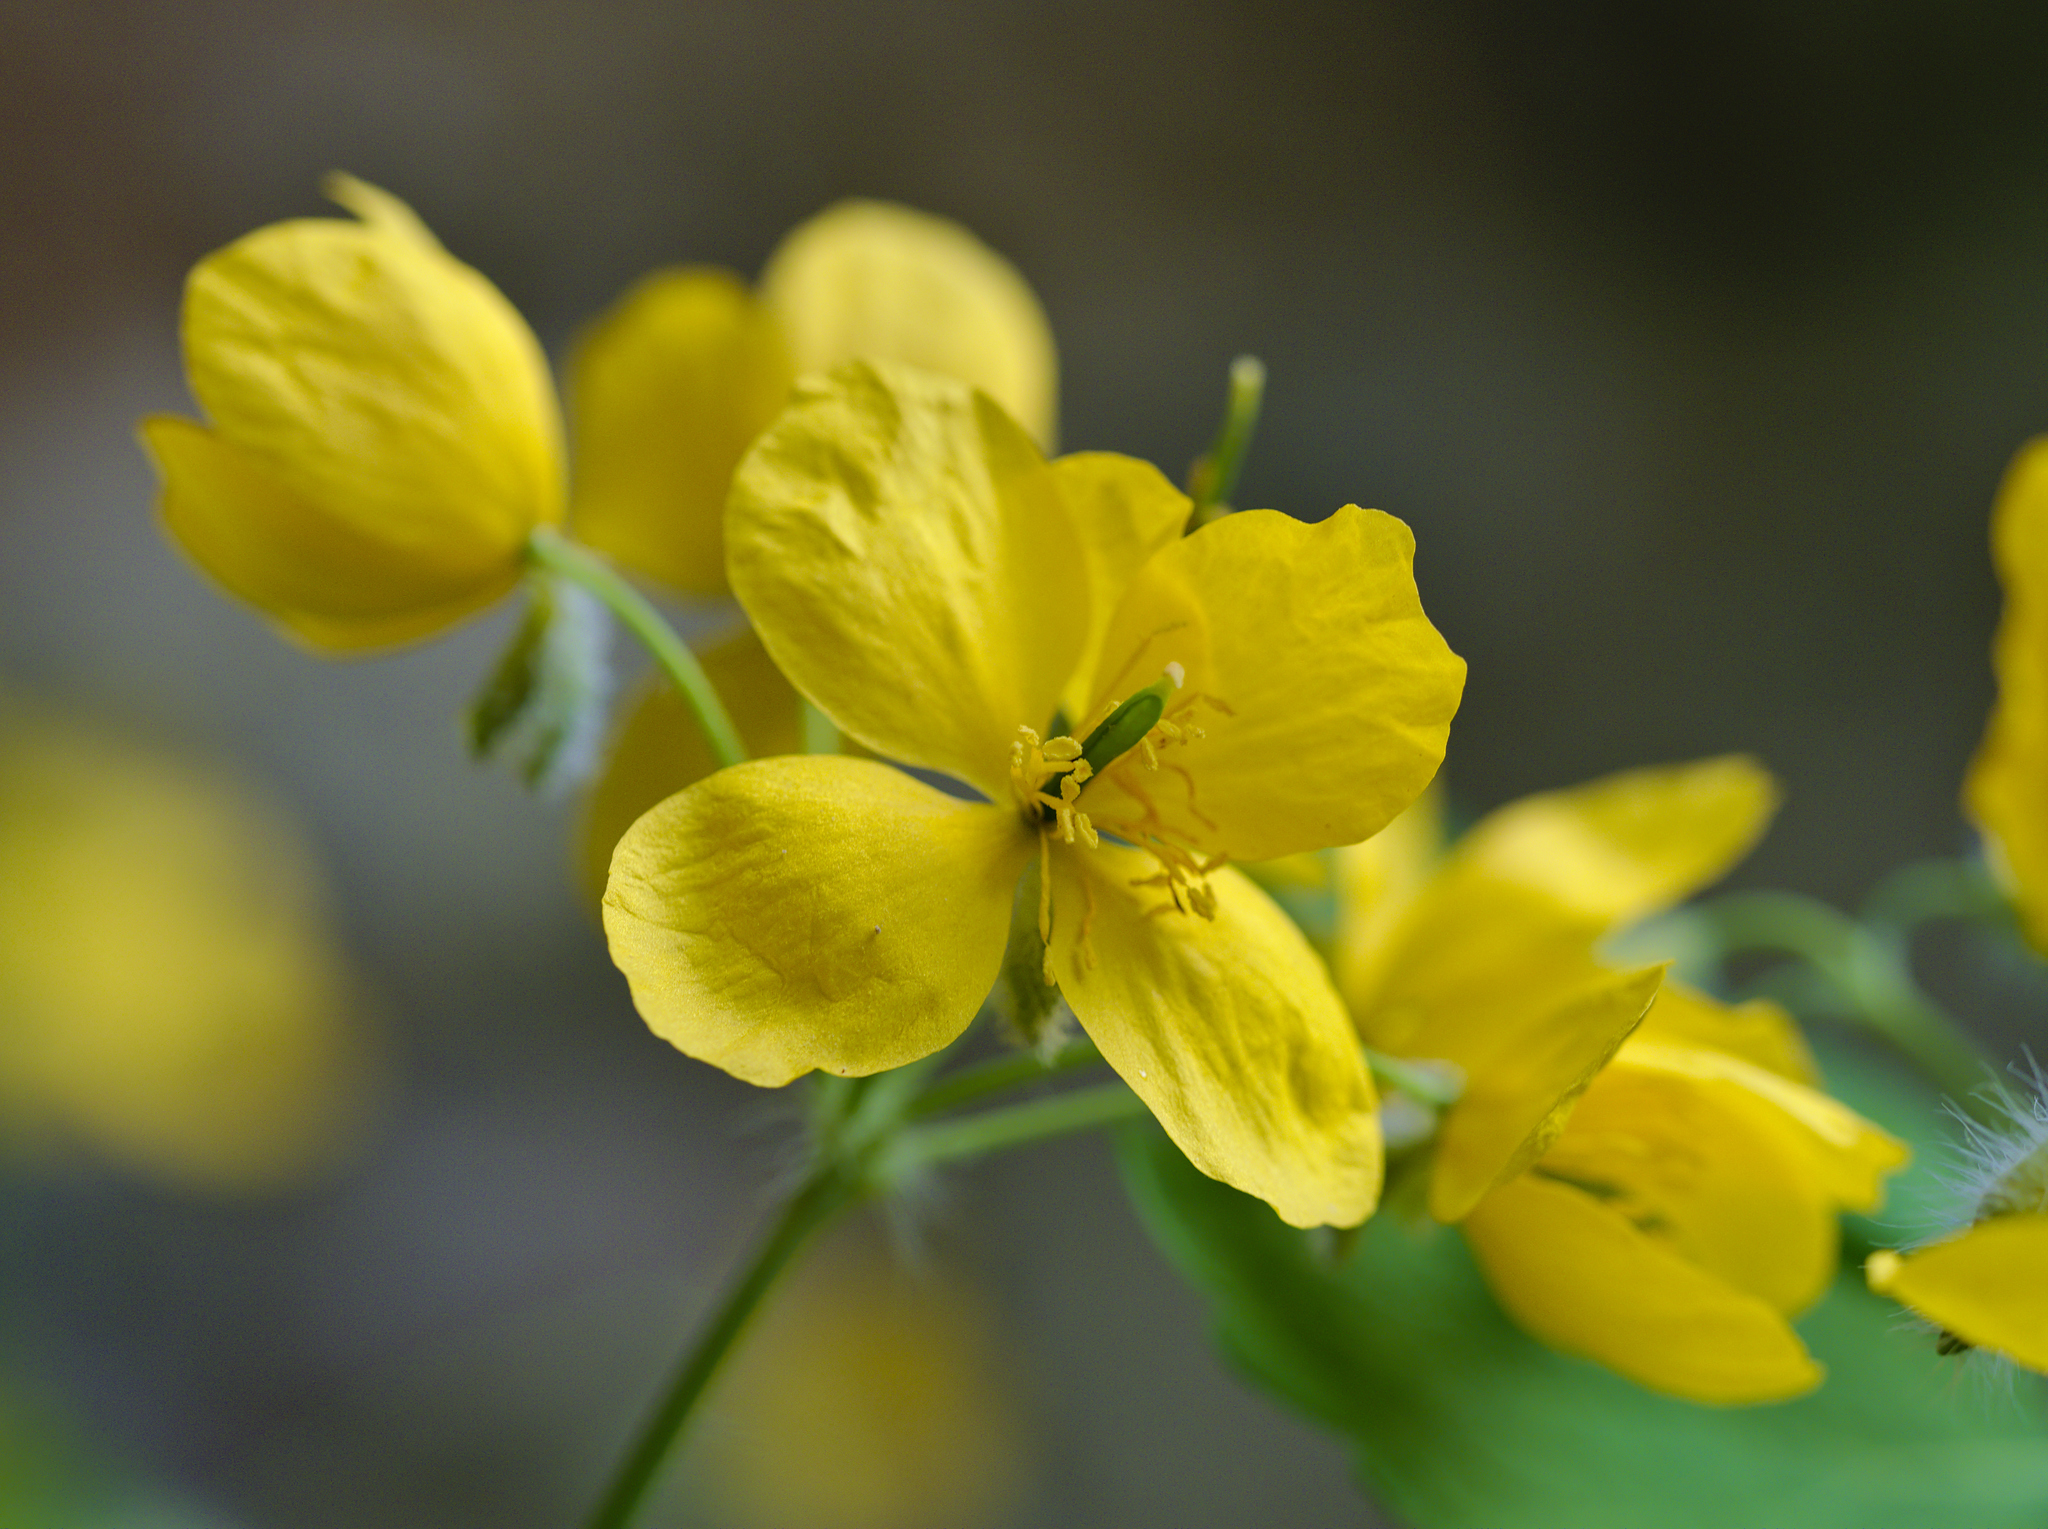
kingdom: Plantae
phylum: Tracheophyta
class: Magnoliopsida
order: Ranunculales
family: Papaveraceae
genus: Chelidonium
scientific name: Chelidonium majus
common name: Greater celandine
